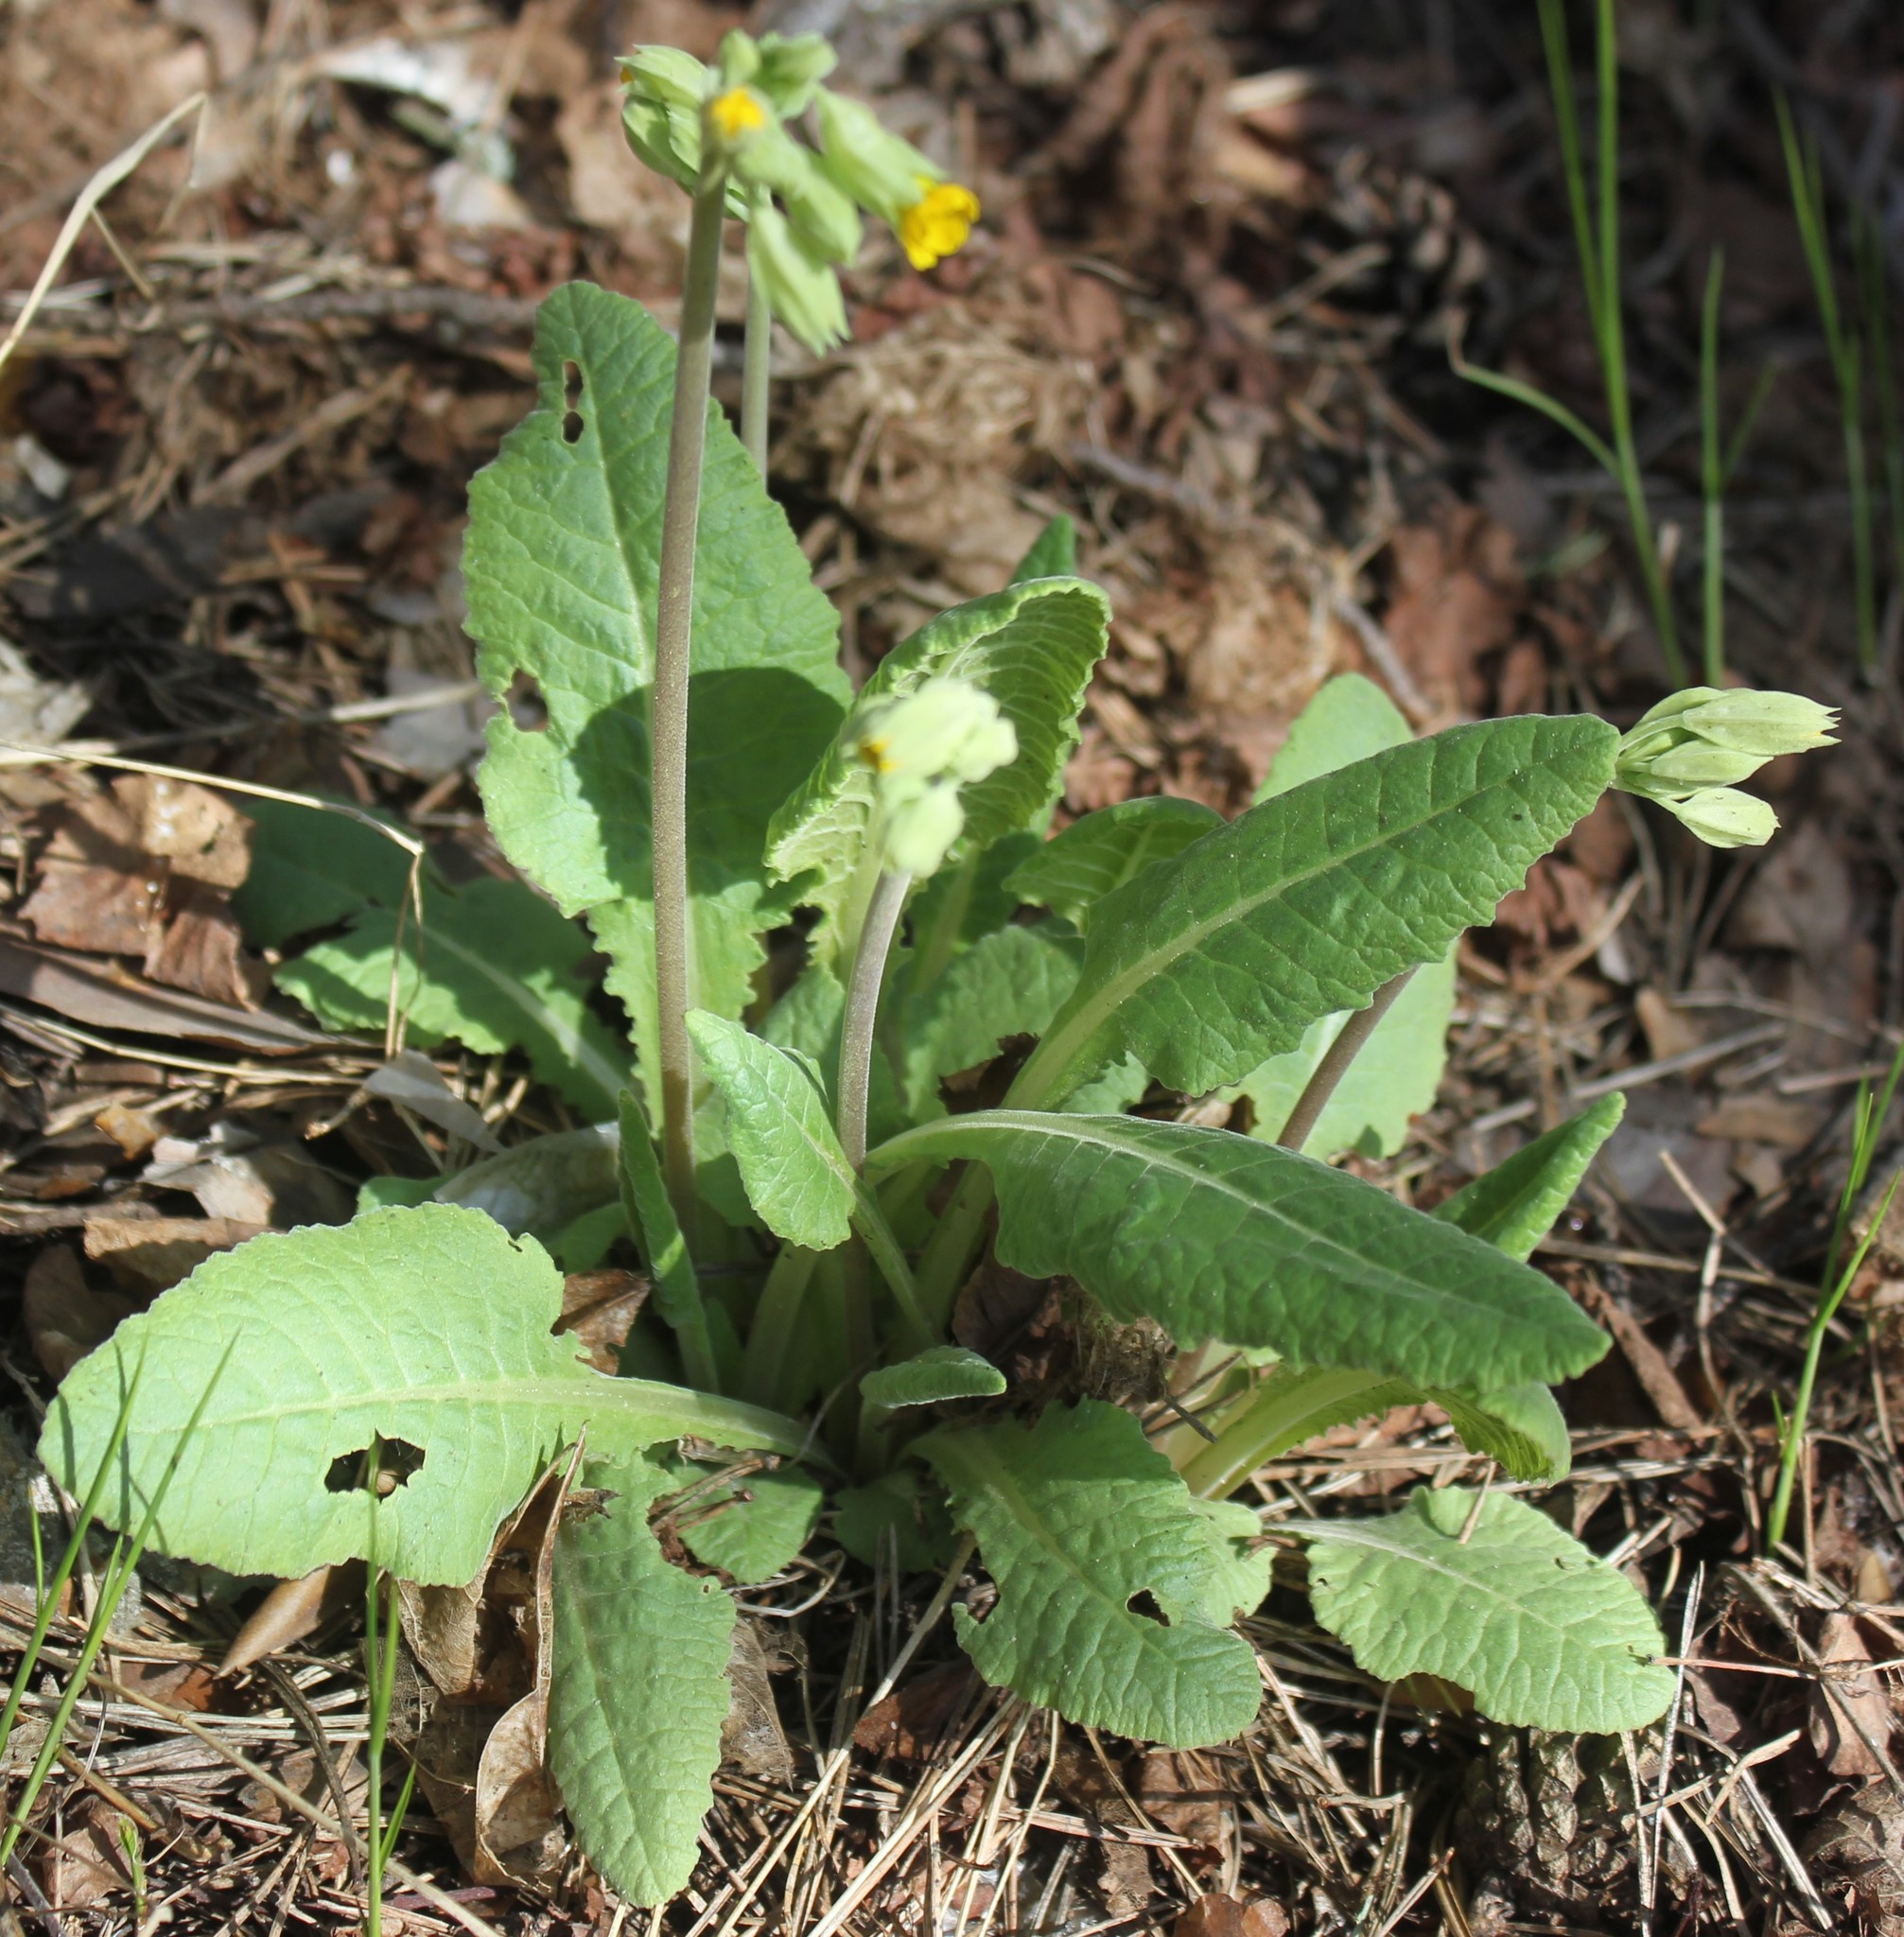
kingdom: Plantae
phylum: Tracheophyta
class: Magnoliopsida
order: Ericales
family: Primulaceae
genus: Primula
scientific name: Primula veris
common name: Cowslip
